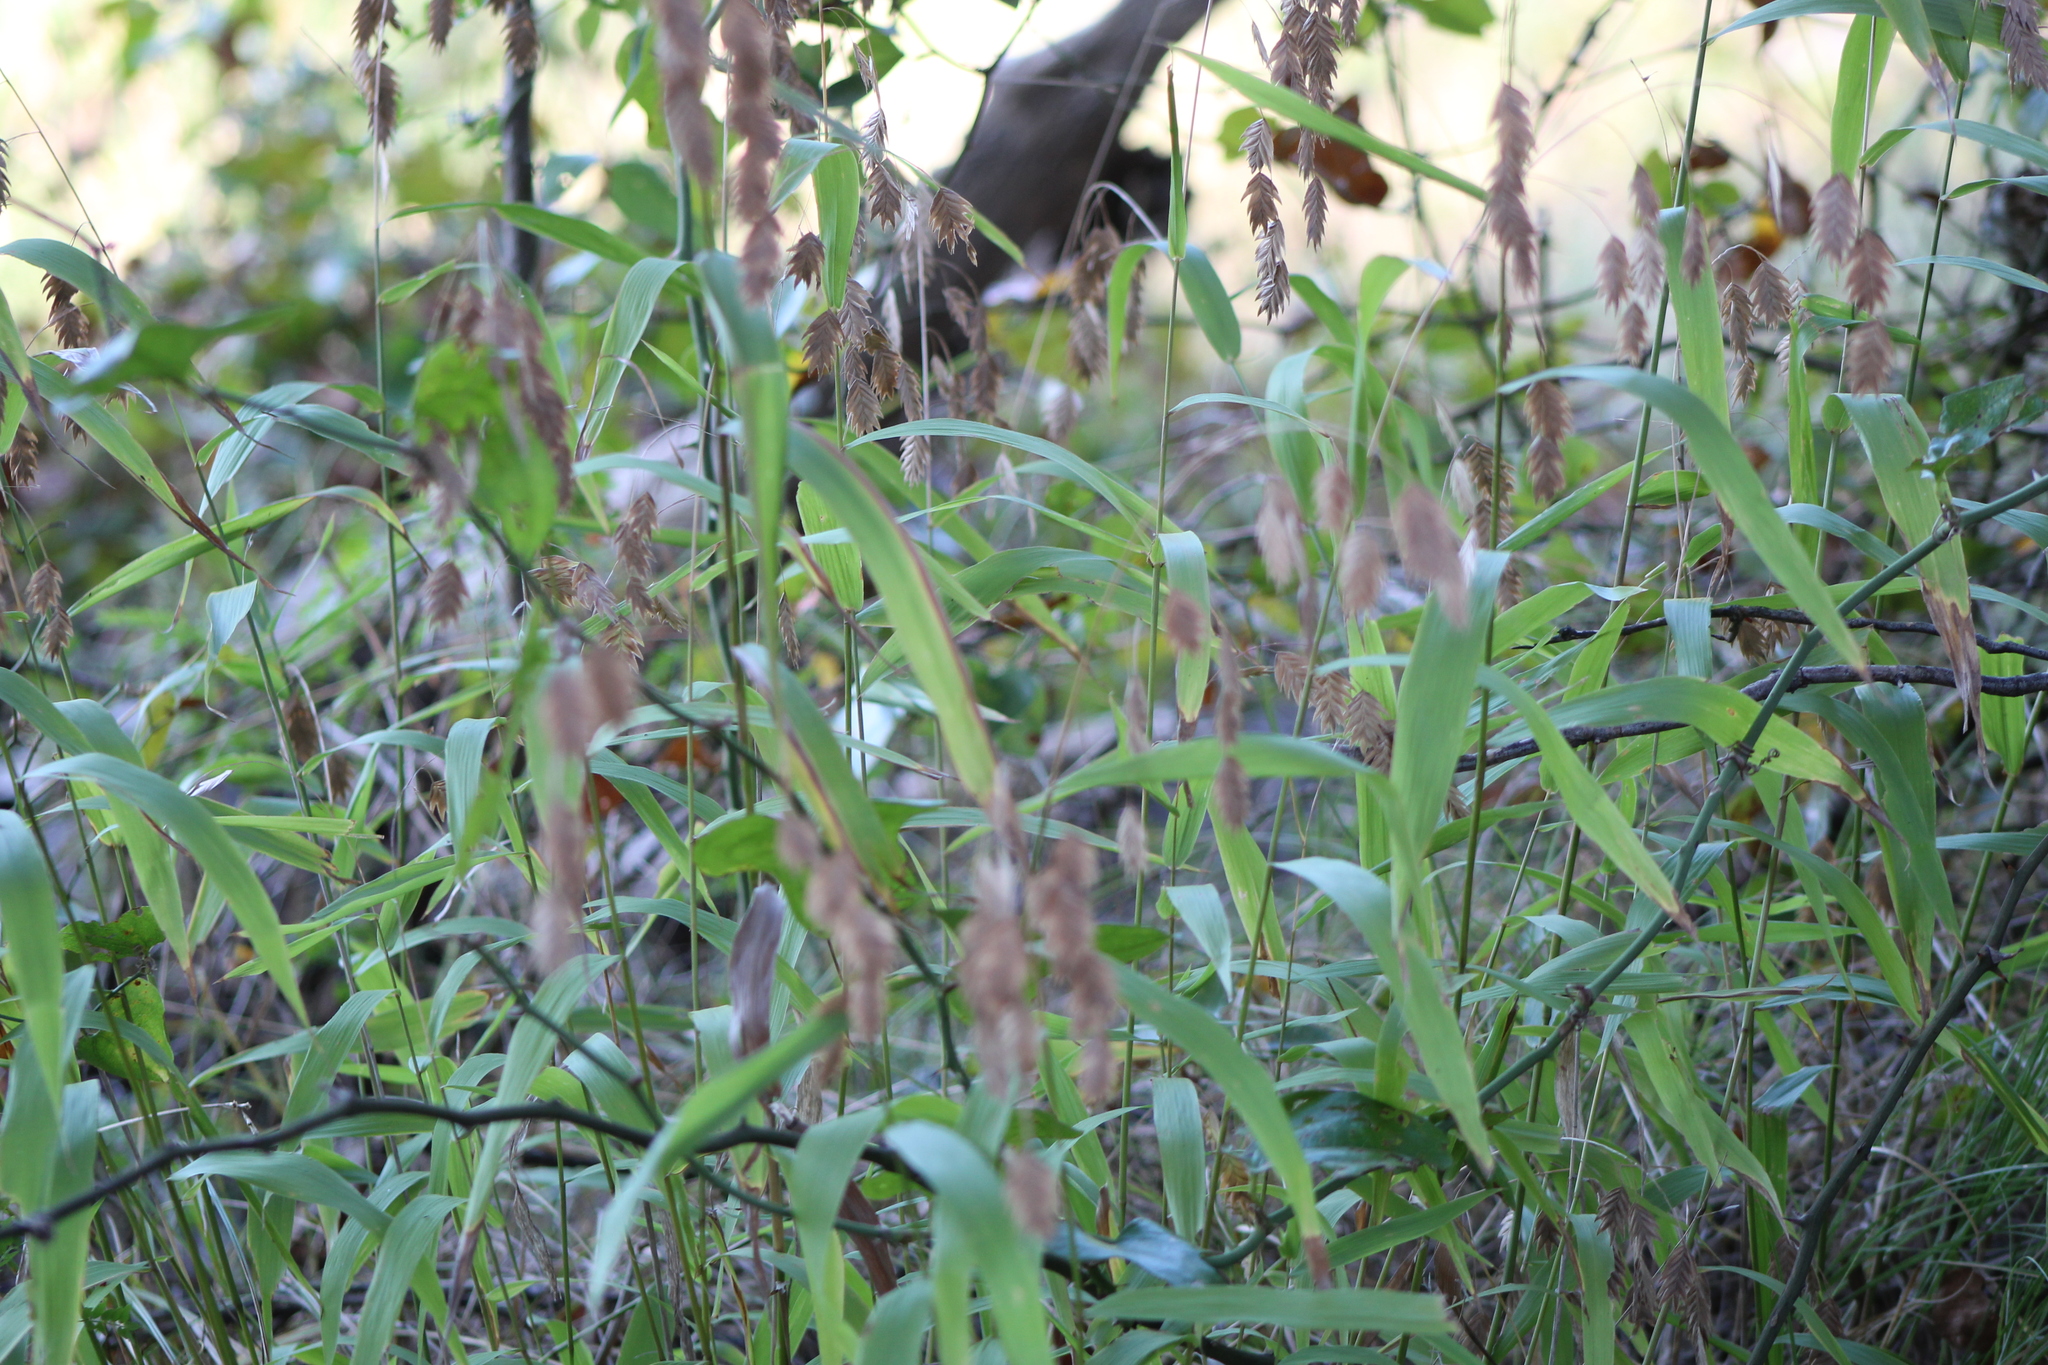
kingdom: Plantae
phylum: Tracheophyta
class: Liliopsida
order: Poales
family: Poaceae
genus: Chasmanthium
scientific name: Chasmanthium latifolium
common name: Broad-leaved chasmanthium
